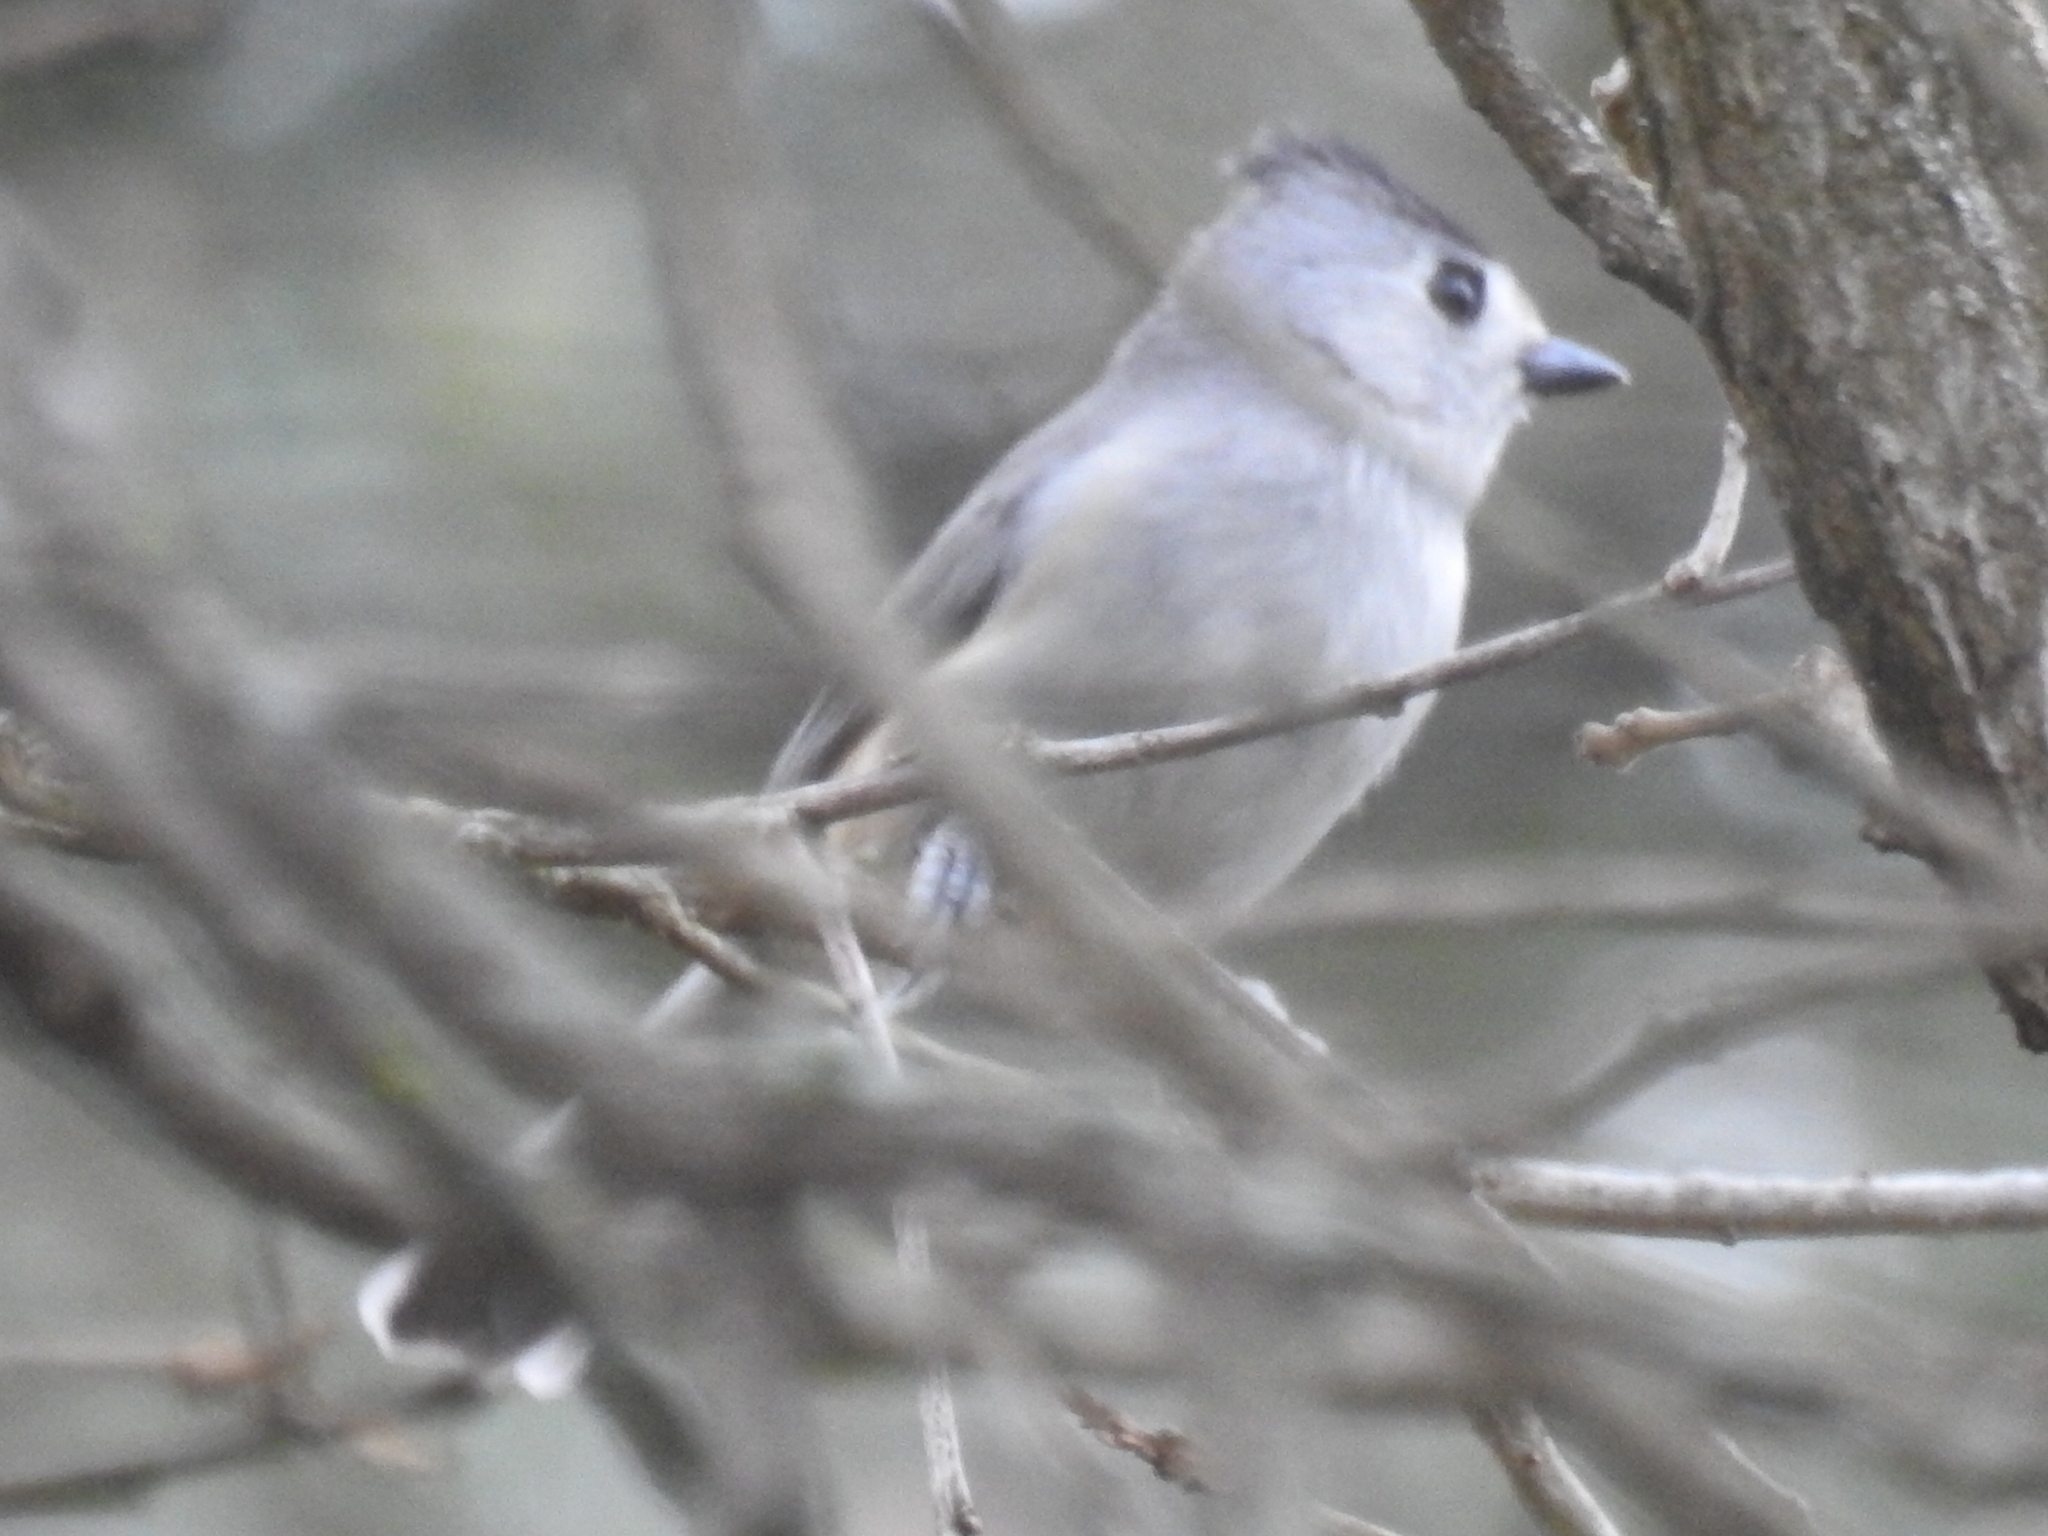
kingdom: Animalia
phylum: Chordata
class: Aves
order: Passeriformes
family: Paridae
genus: Baeolophus
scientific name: Baeolophus atricristatus
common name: Black-crested titmouse
